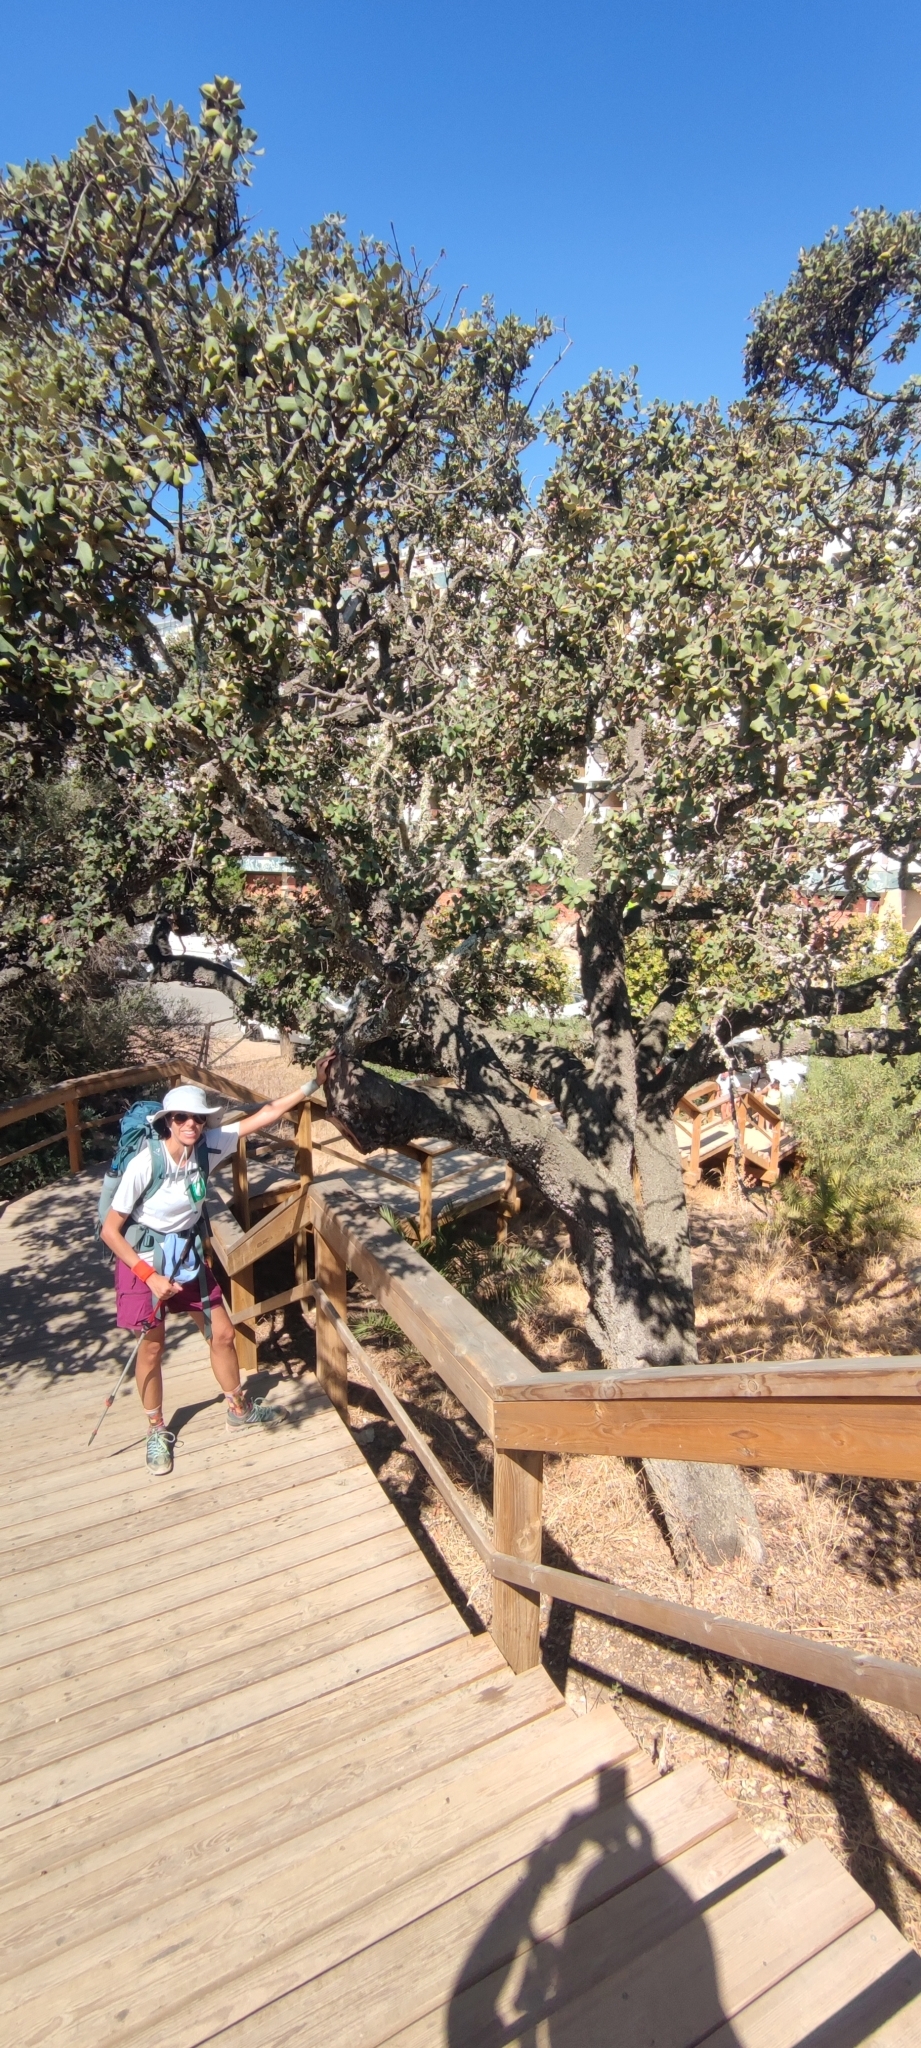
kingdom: Plantae
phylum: Tracheophyta
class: Magnoliopsida
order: Fagales
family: Fagaceae
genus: Quercus
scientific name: Quercus rotundifolia
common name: Holm oak
